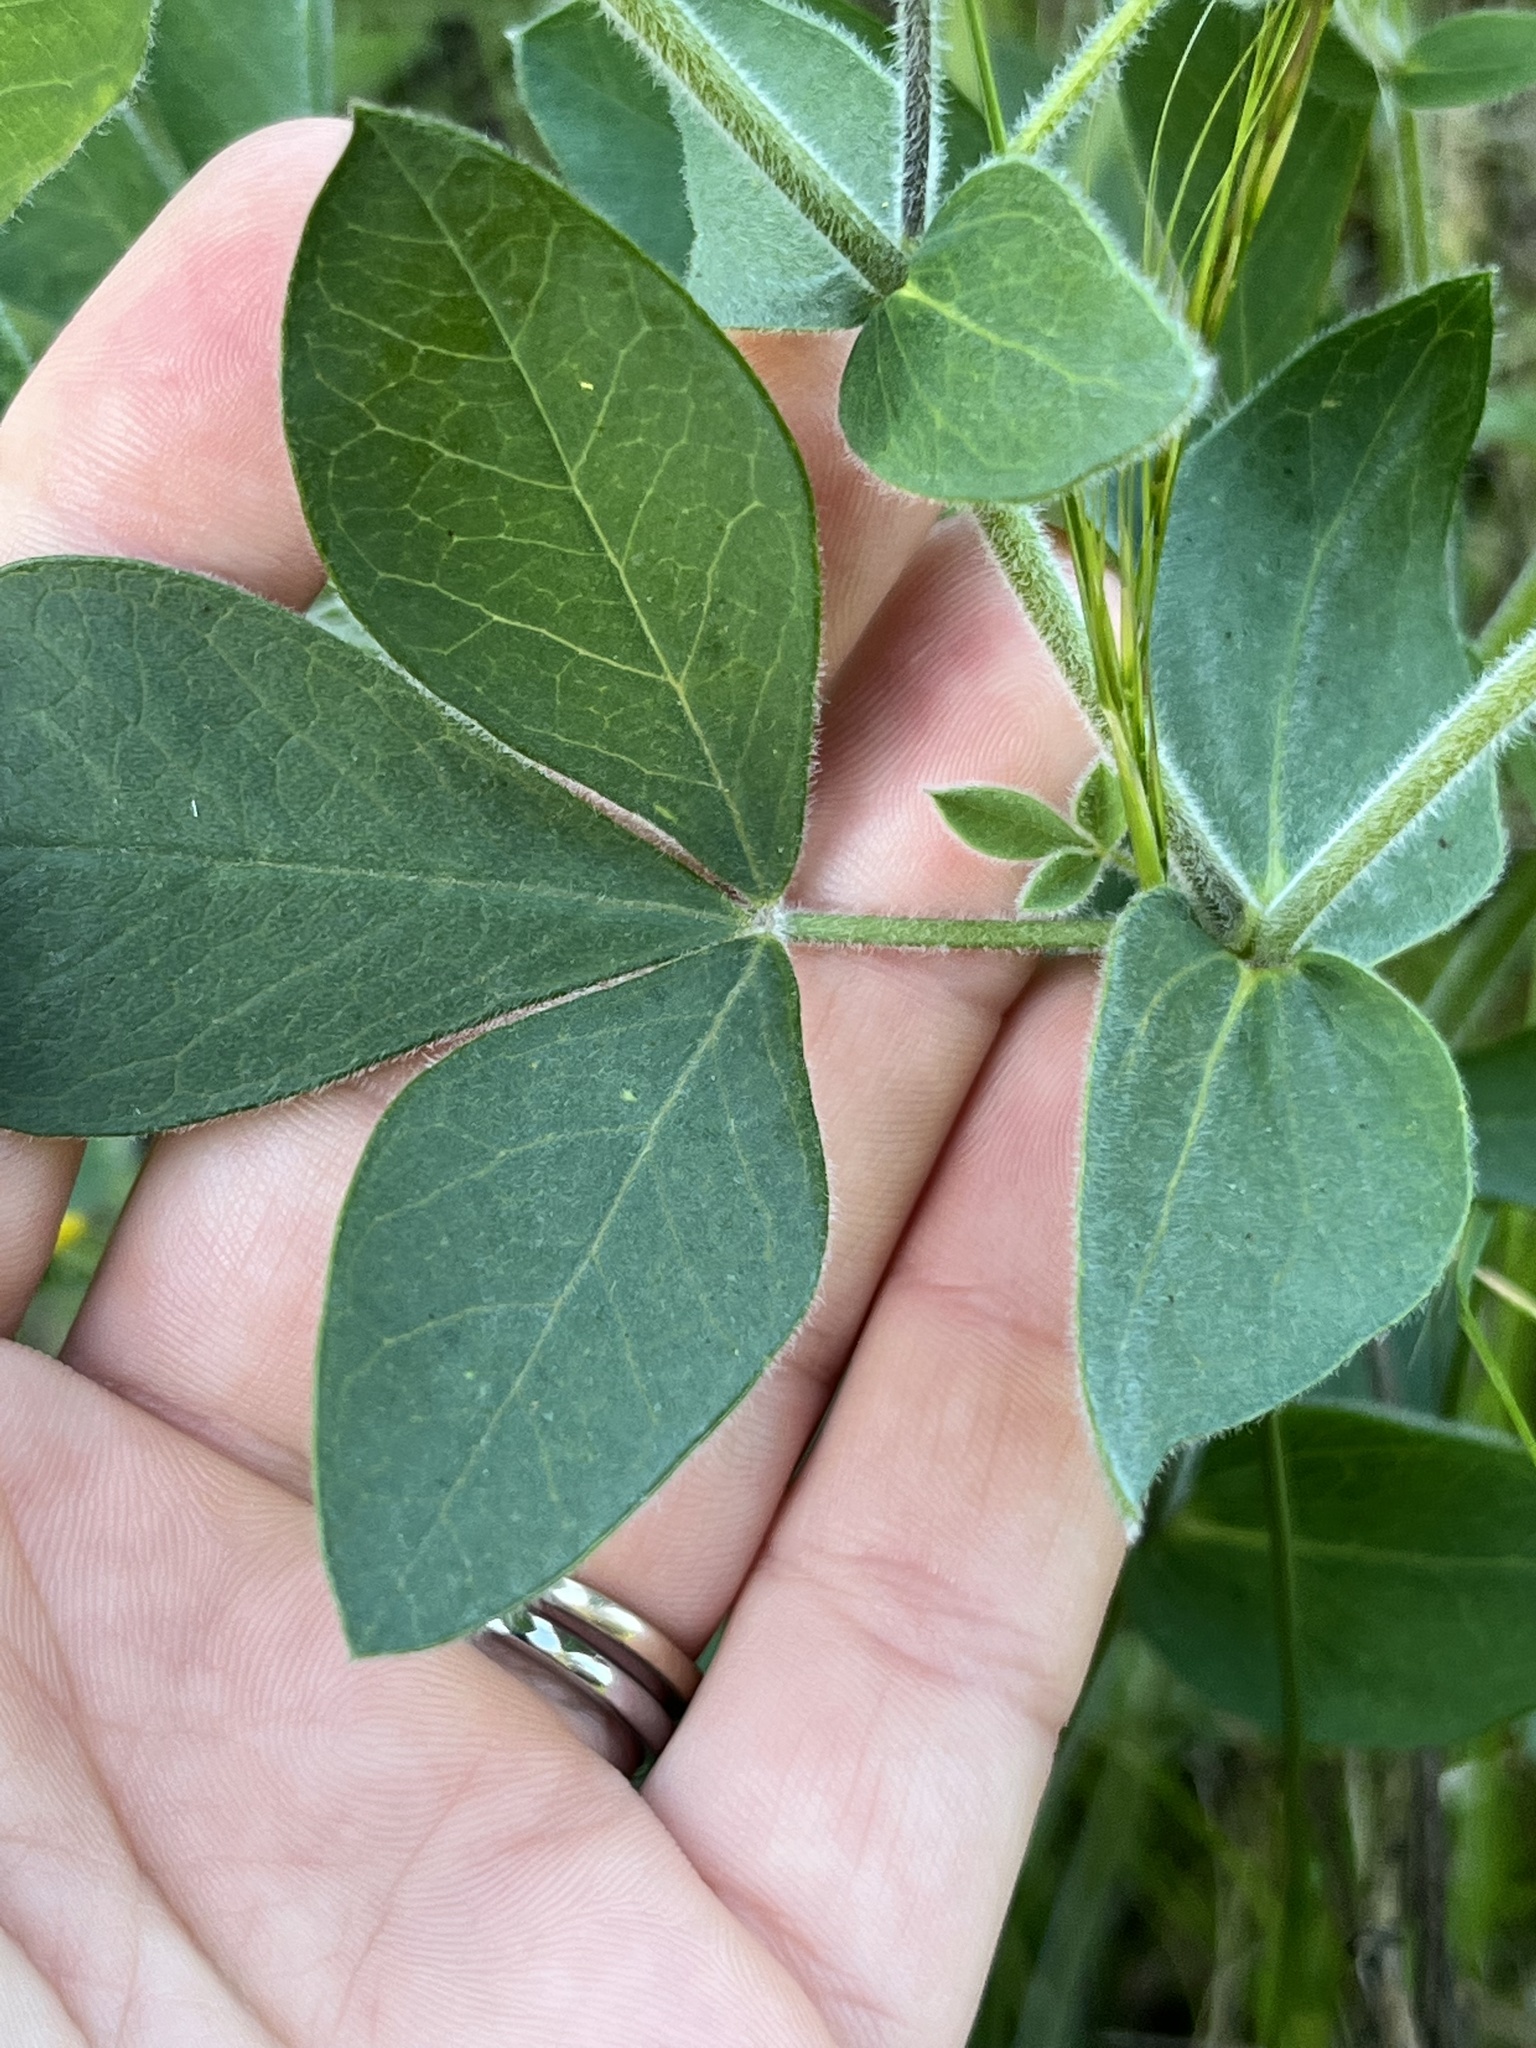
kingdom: Plantae
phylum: Tracheophyta
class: Magnoliopsida
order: Fabales
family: Fabaceae
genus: Thermopsis
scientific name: Thermopsis californica
